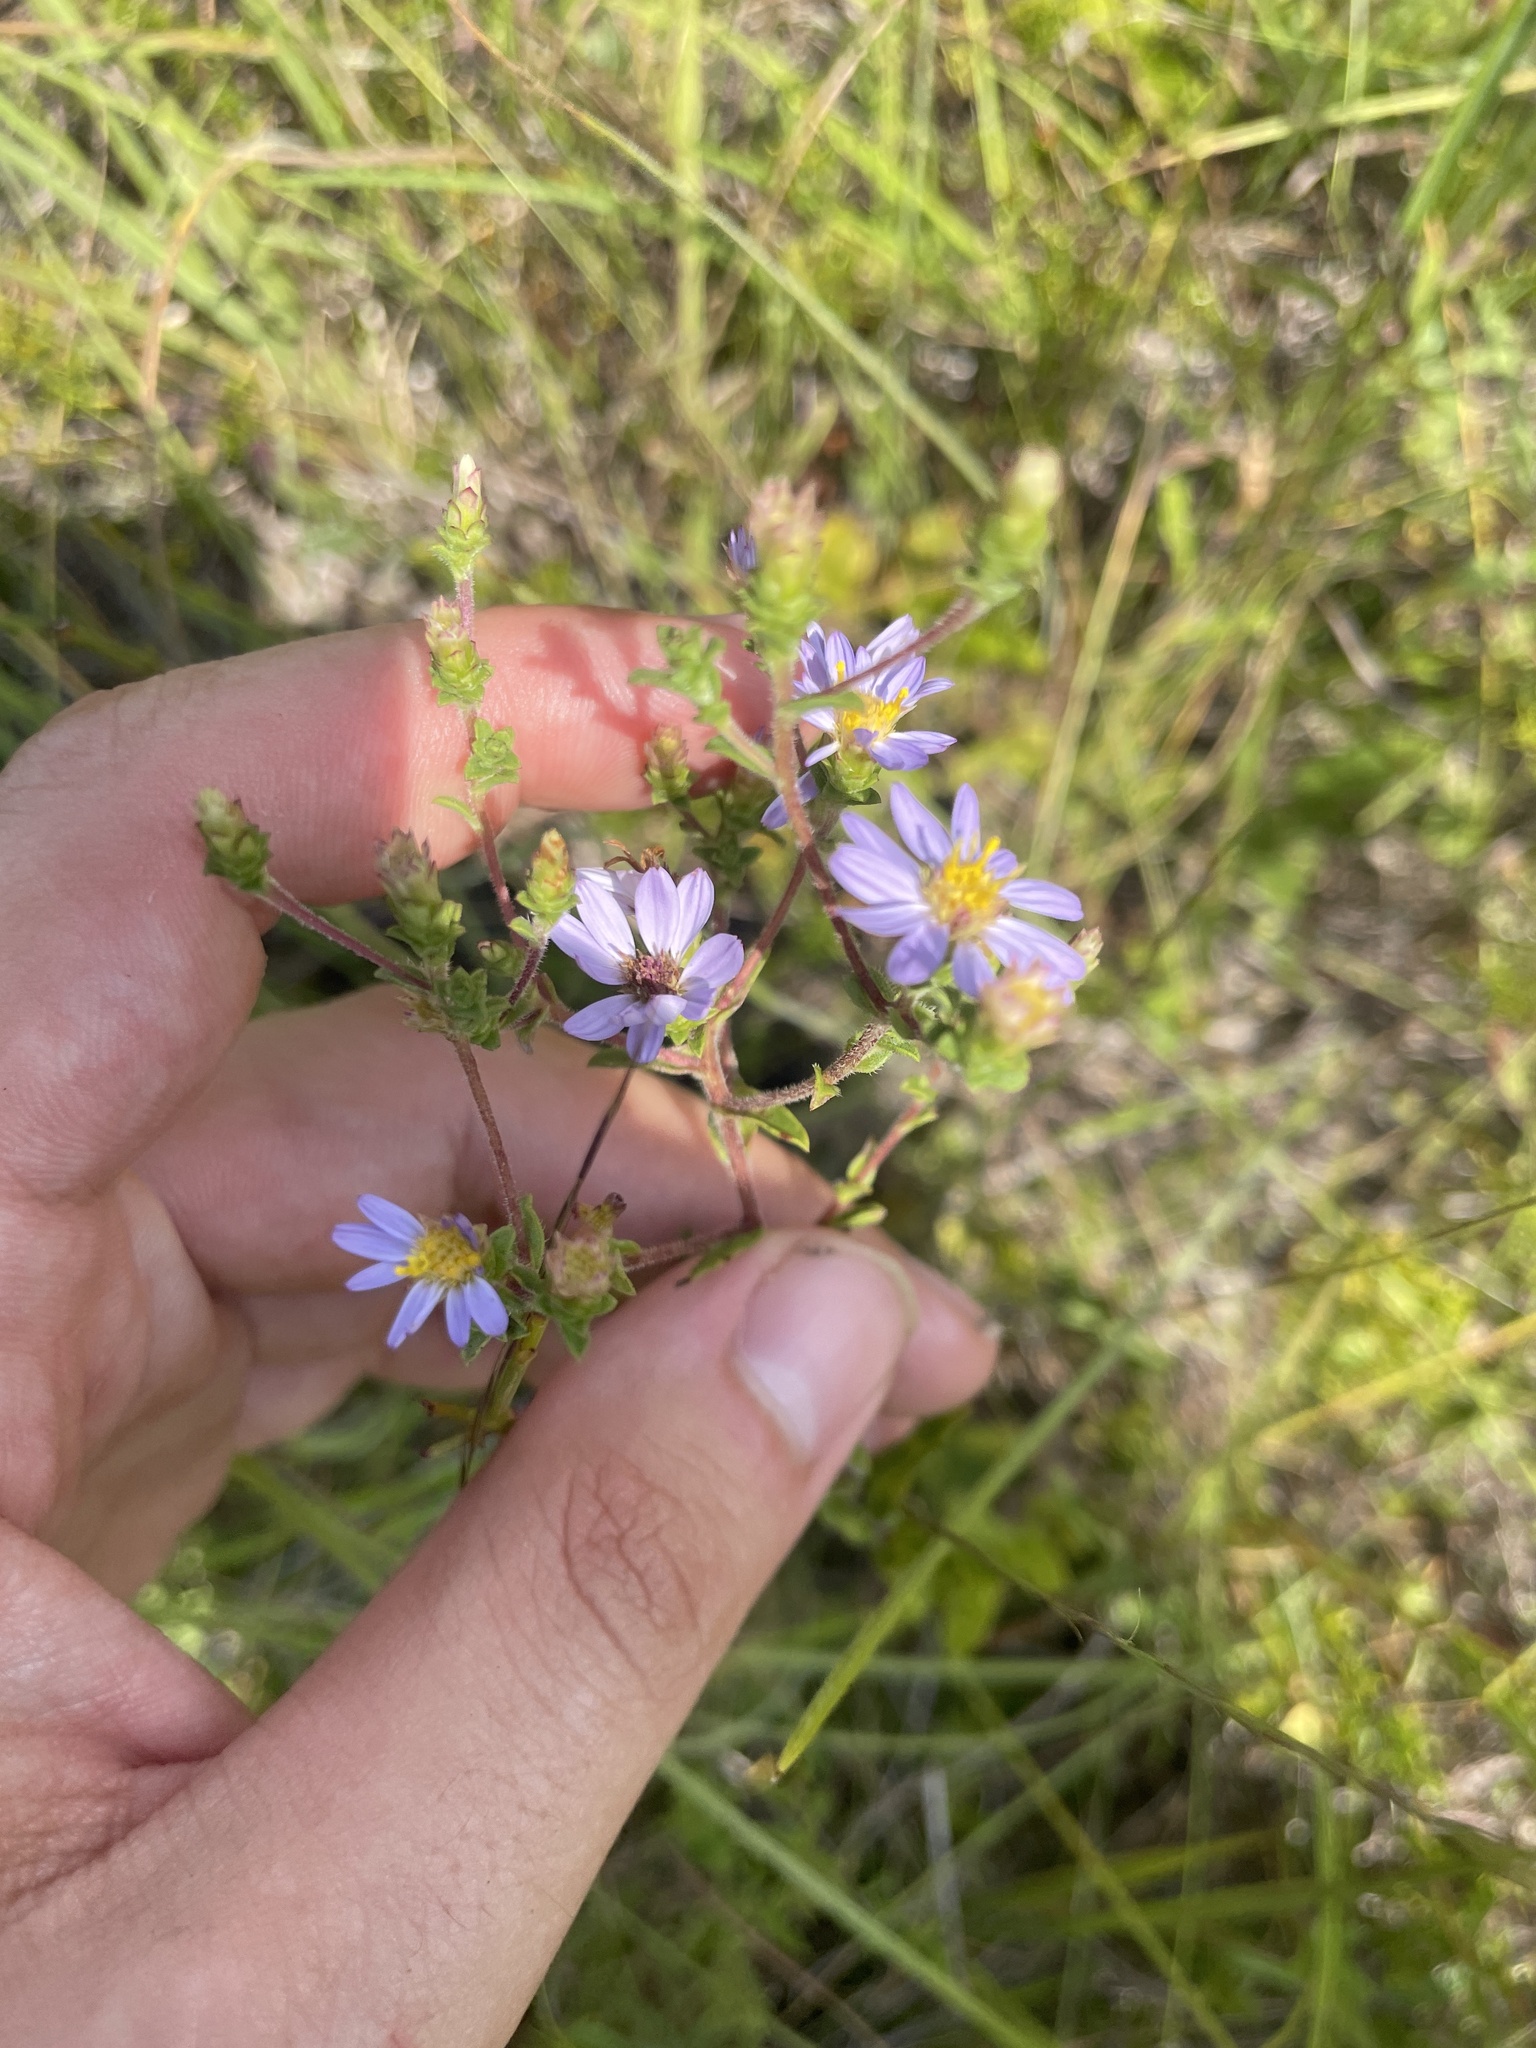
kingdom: Plantae
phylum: Tracheophyta
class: Magnoliopsida
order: Asterales
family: Asteraceae
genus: Eurybia
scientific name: Eurybia compacta
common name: Slender aster
